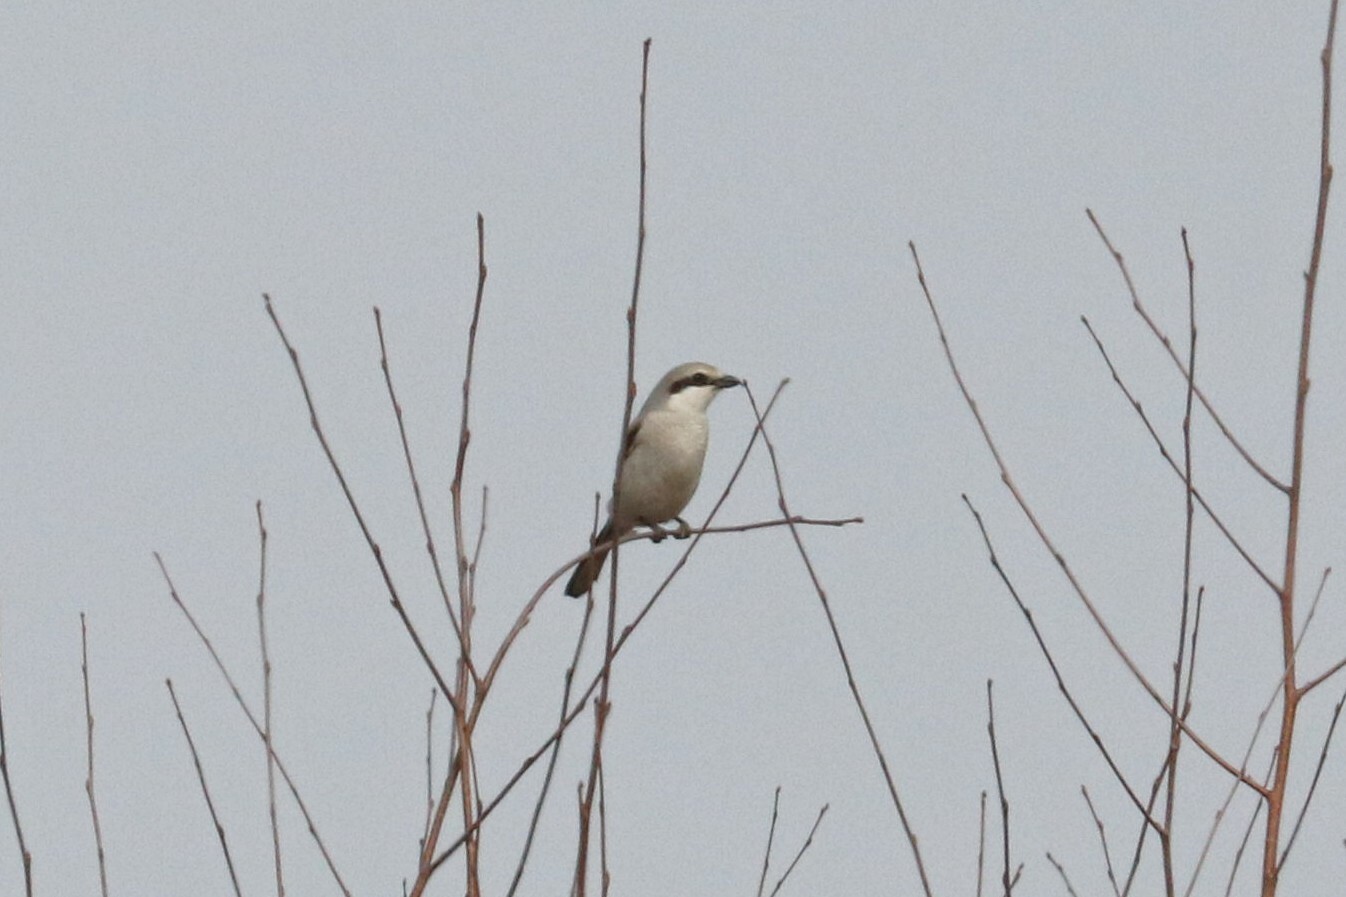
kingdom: Animalia
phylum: Chordata
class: Aves
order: Passeriformes
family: Laniidae
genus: Lanius
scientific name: Lanius excubitor
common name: Great grey shrike
